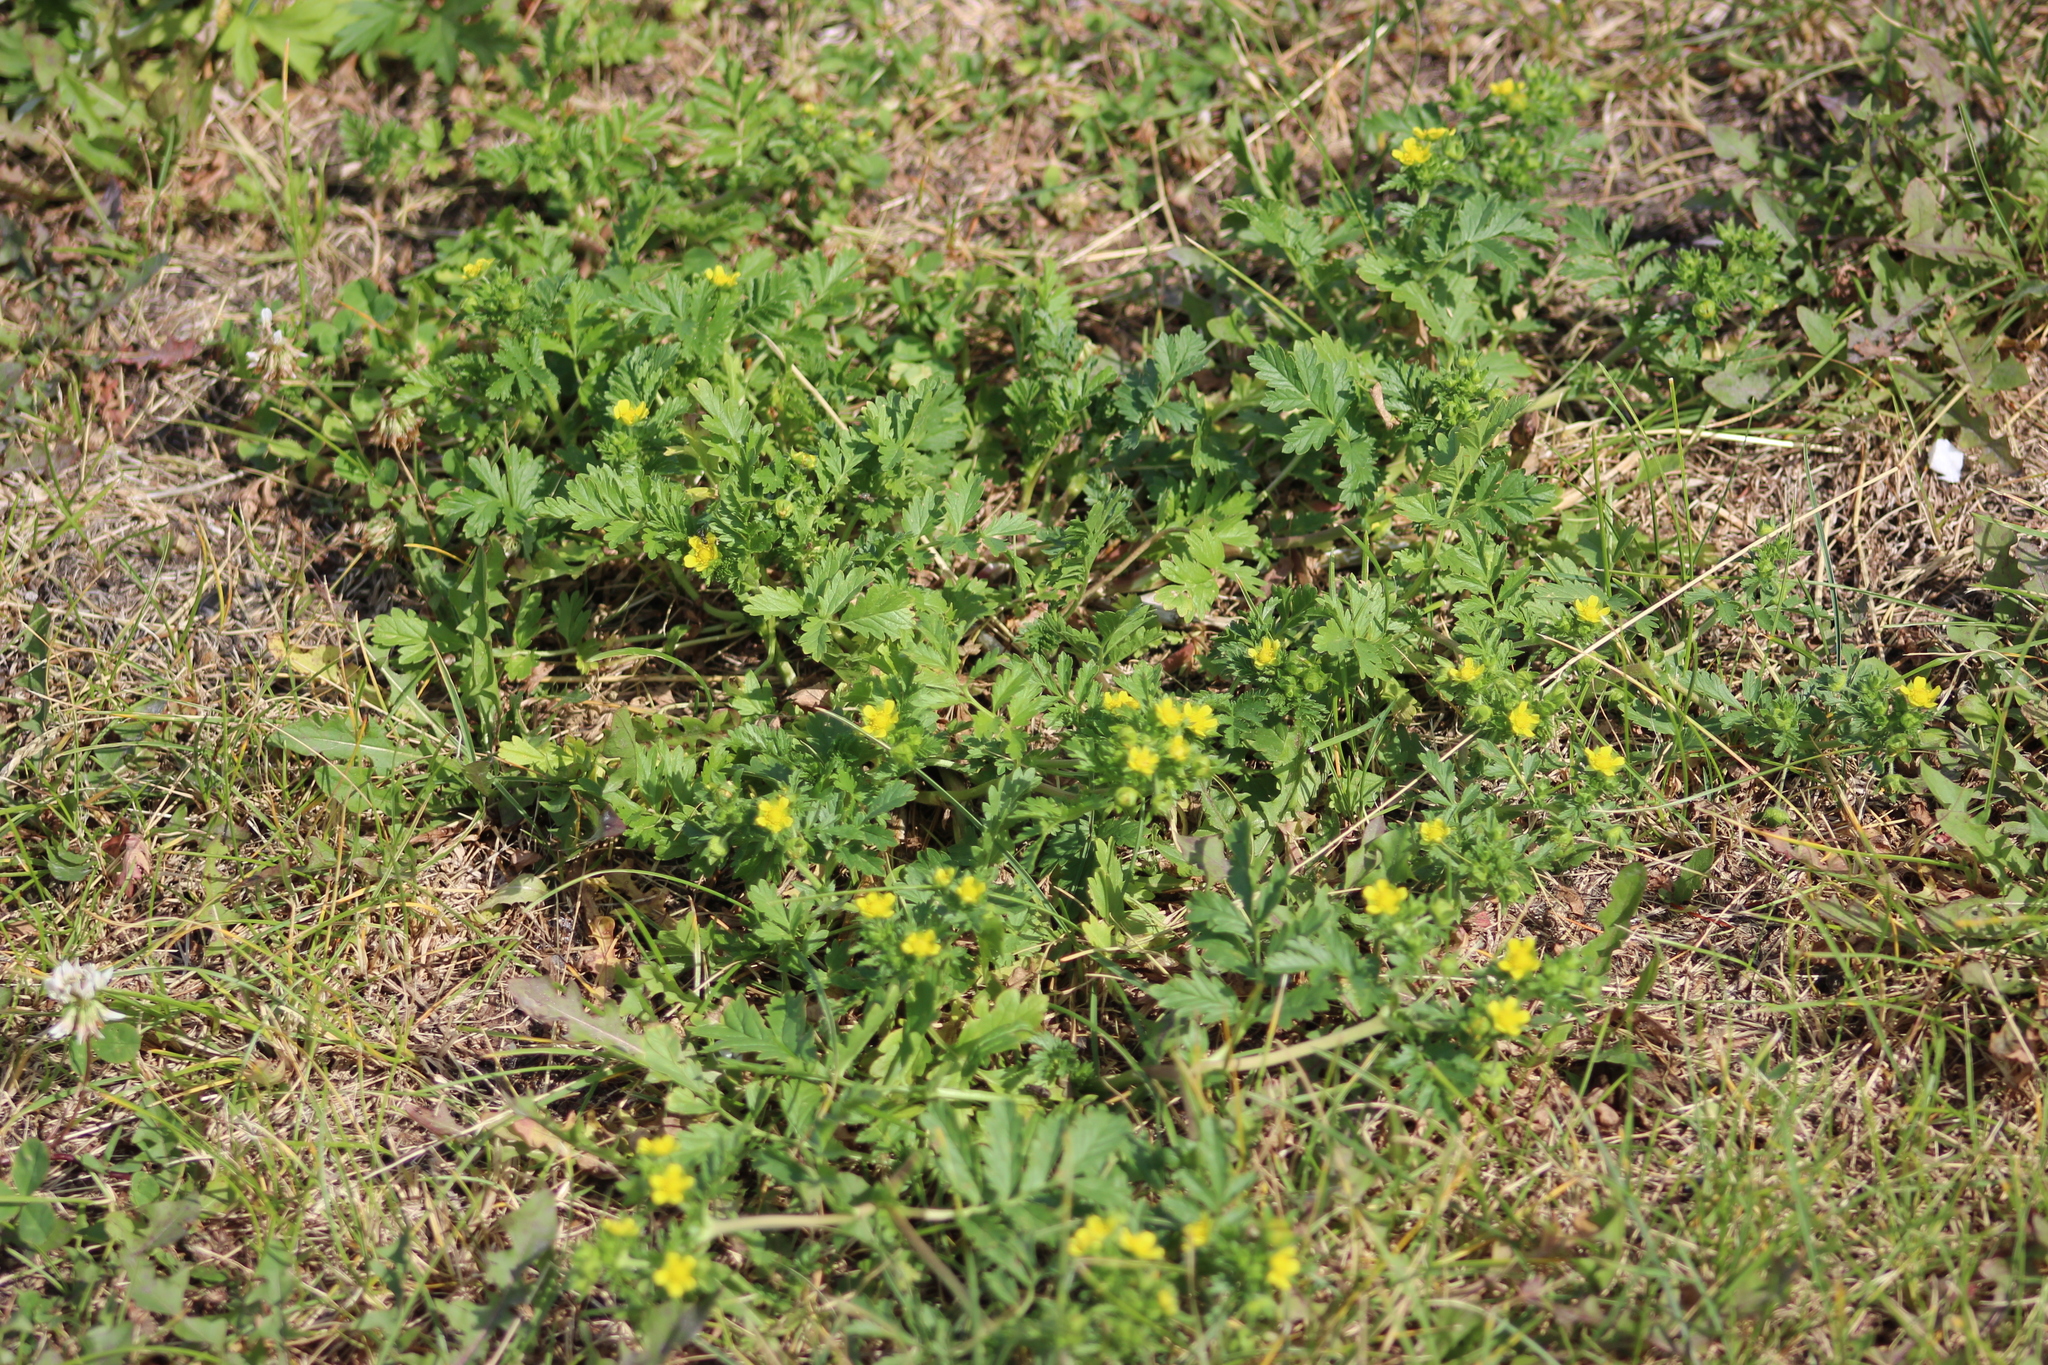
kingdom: Plantae
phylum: Tracheophyta
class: Magnoliopsida
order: Rosales
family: Rosaceae
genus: Potentilla
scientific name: Potentilla supina
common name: Prostrate cinquefoil
